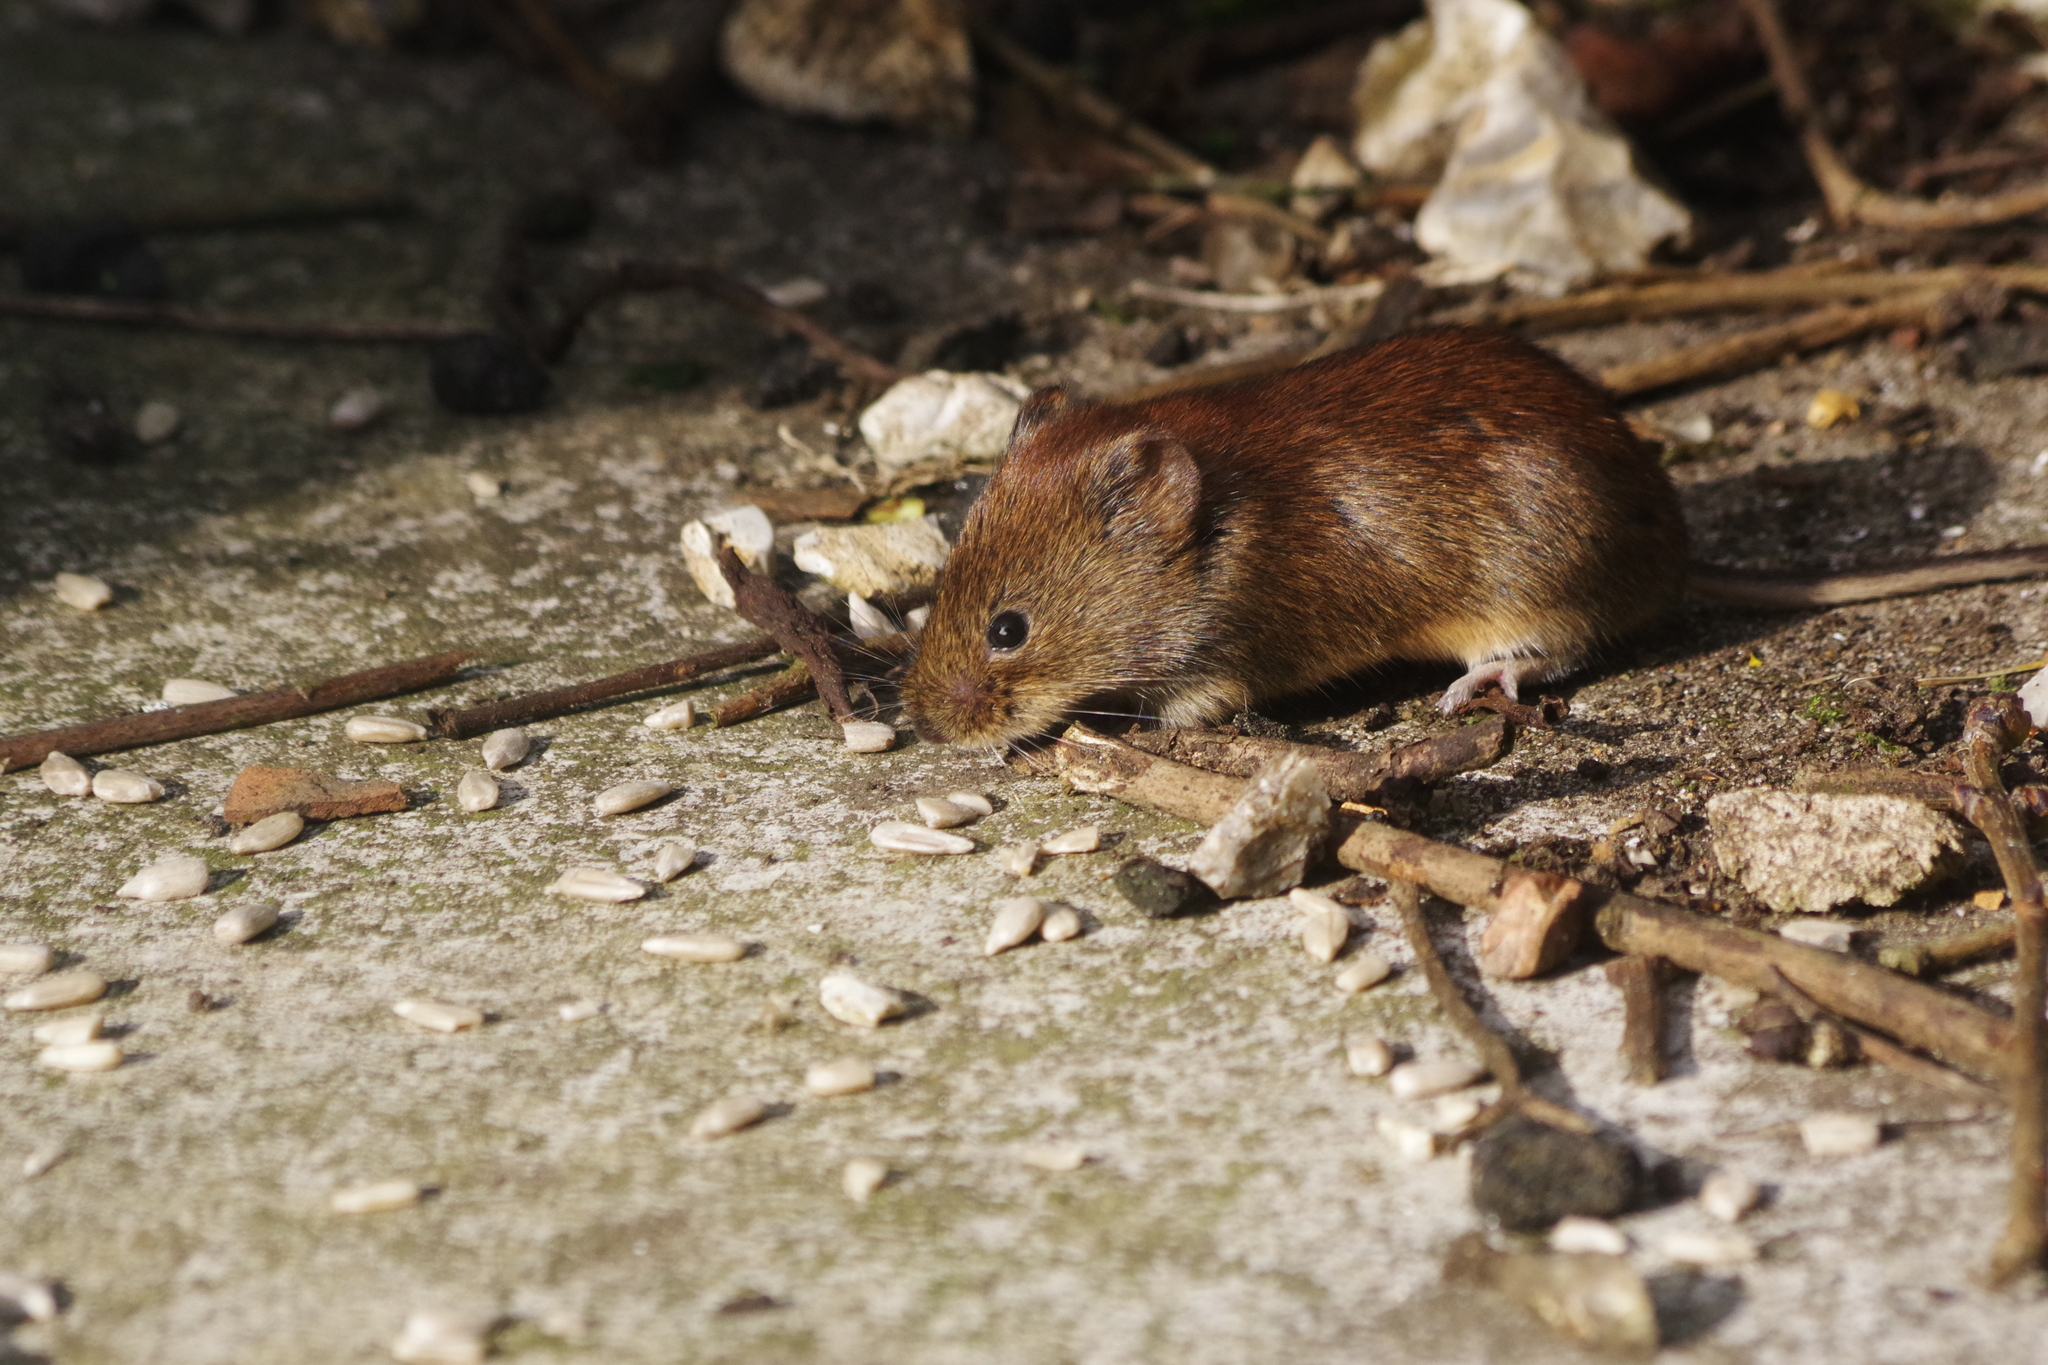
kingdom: Animalia
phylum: Chordata
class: Mammalia
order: Rodentia
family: Cricetidae
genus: Myodes
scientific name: Myodes glareolus
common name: Bank vole
